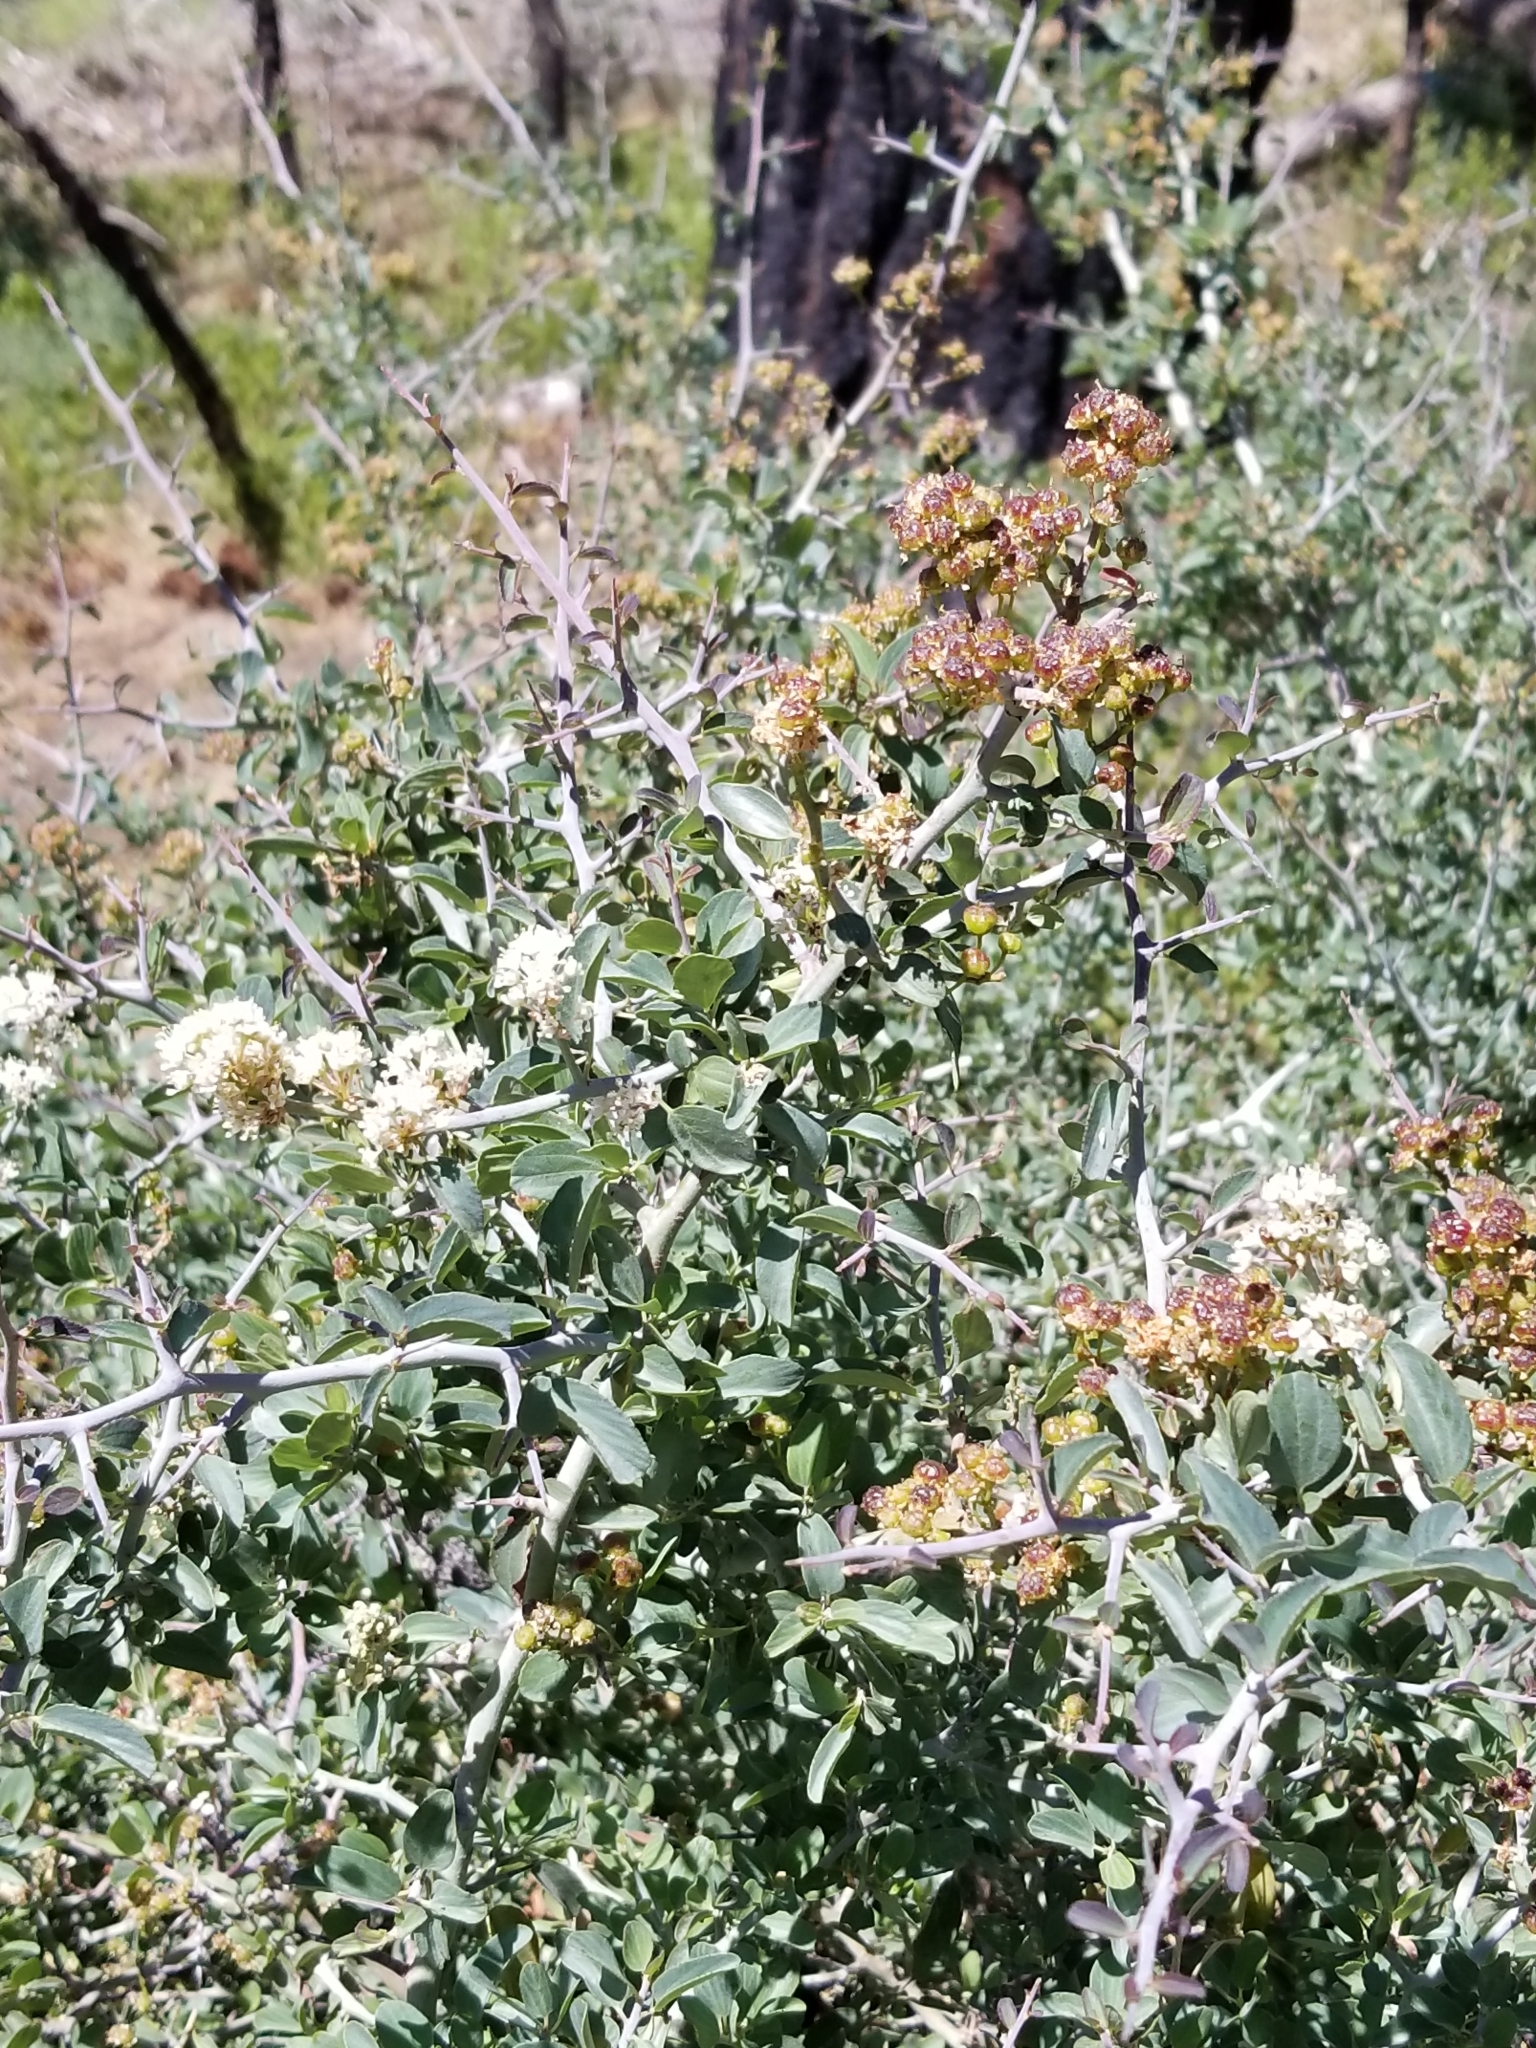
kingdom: Plantae
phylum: Tracheophyta
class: Magnoliopsida
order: Rosales
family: Rhamnaceae
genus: Ceanothus
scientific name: Ceanothus cordulatus
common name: Mountain whitethorn
